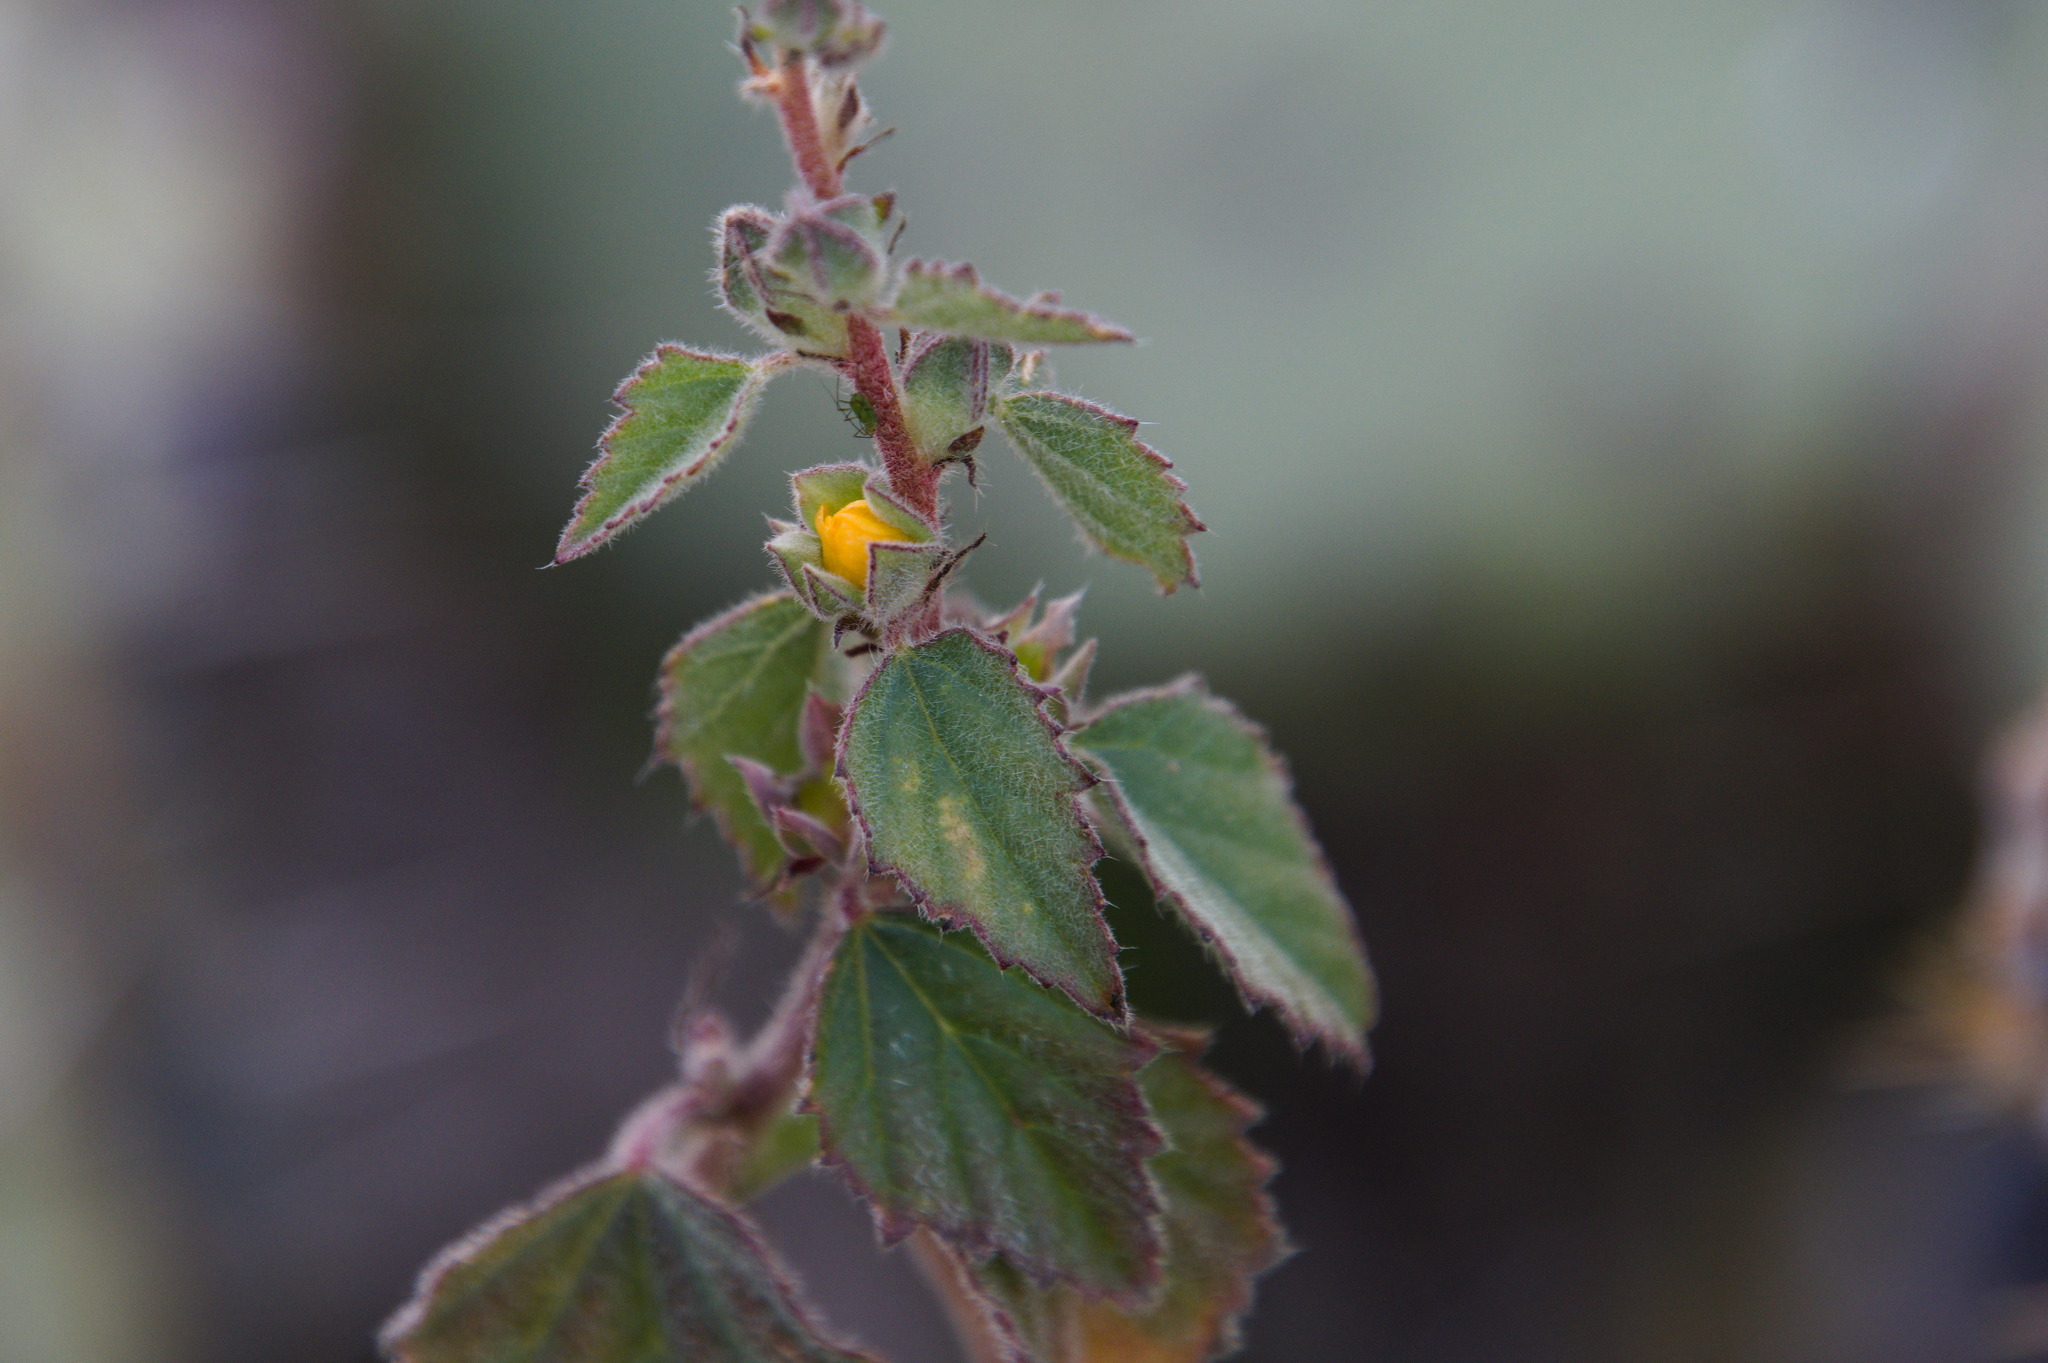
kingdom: Plantae
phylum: Tracheophyta
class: Magnoliopsida
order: Malvales
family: Malvaceae
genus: Malvastrum
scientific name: Malvastrum bicuspidatum
